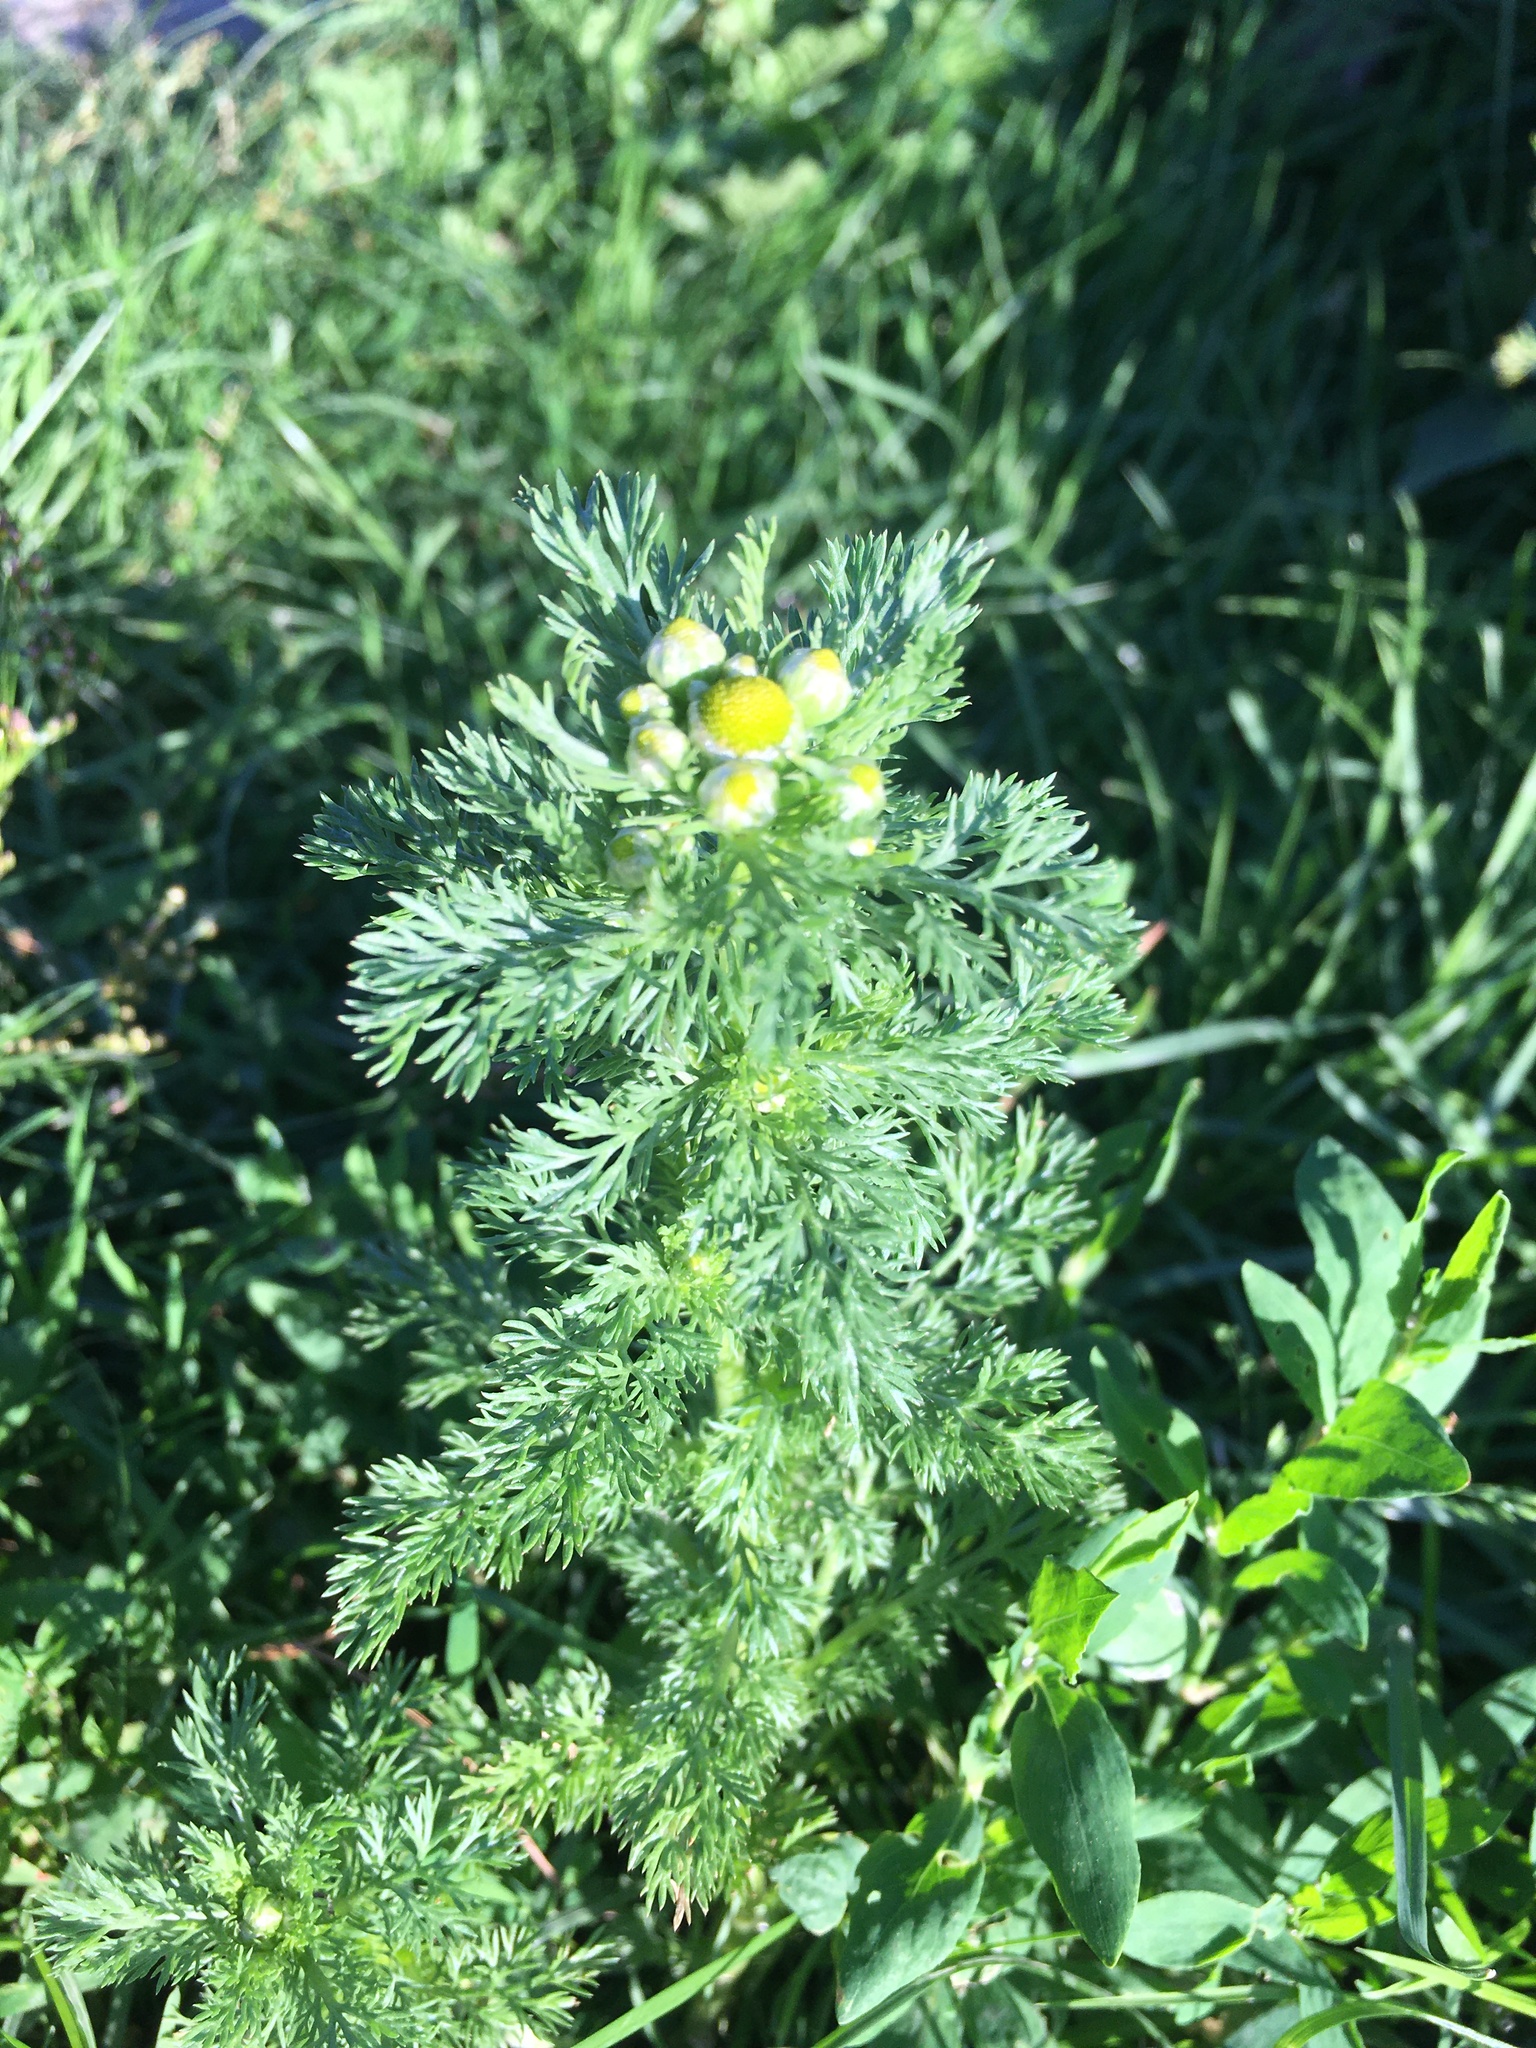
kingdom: Plantae
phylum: Tracheophyta
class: Magnoliopsida
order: Asterales
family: Asteraceae
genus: Matricaria
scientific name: Matricaria discoidea
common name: Disc mayweed
